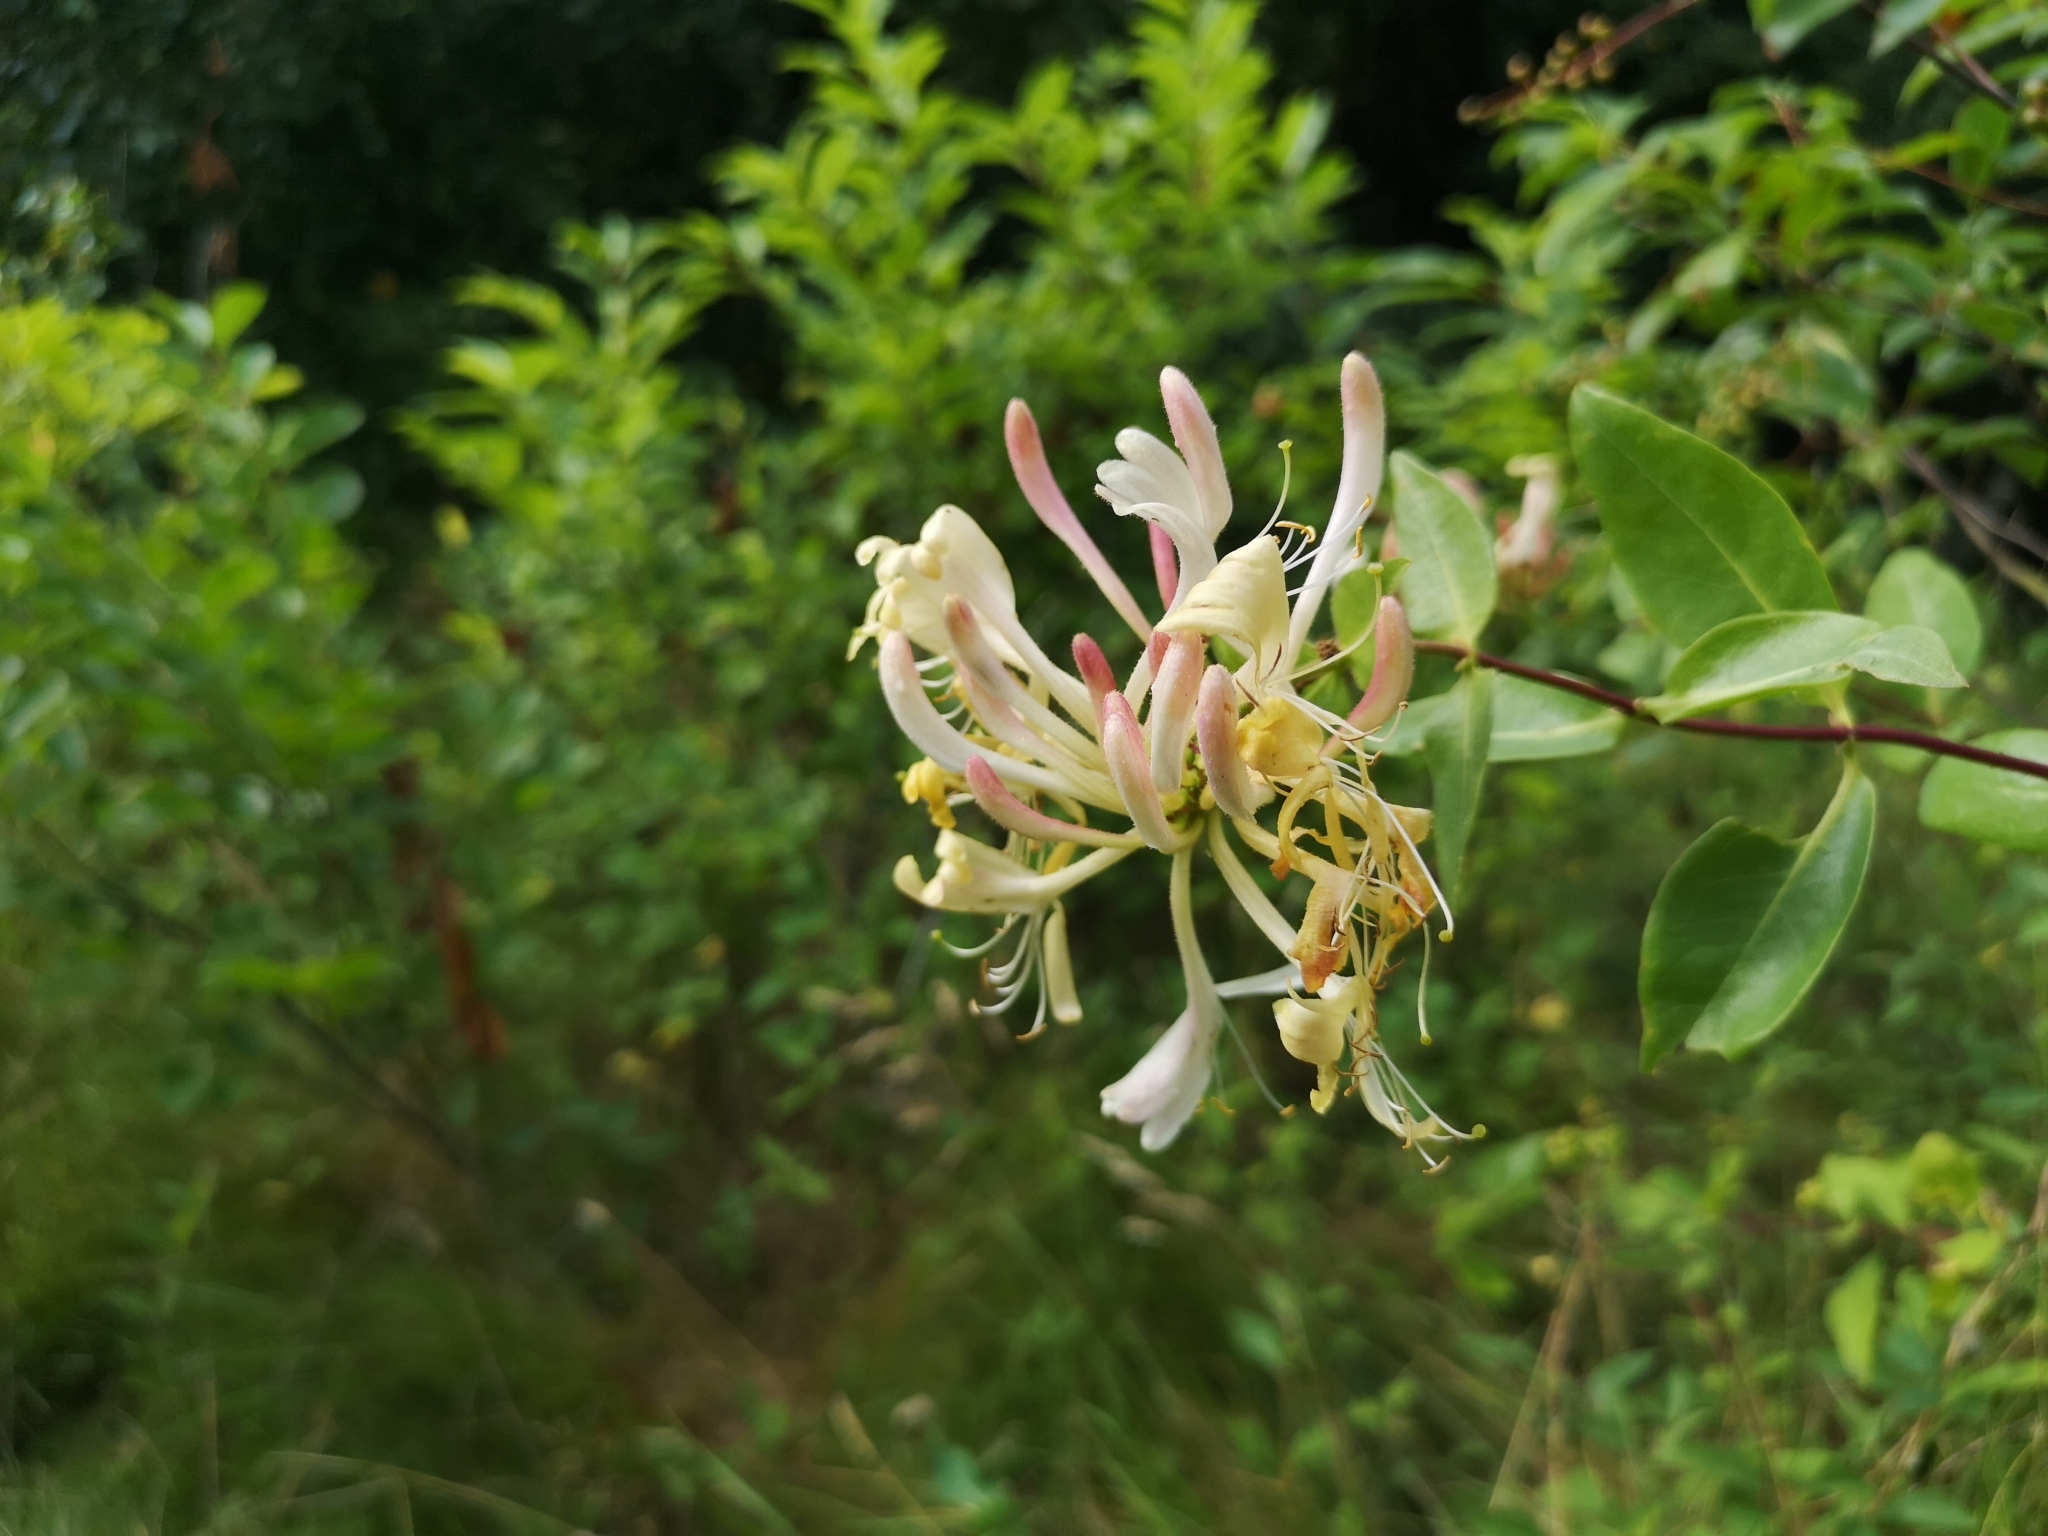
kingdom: Plantae
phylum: Tracheophyta
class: Magnoliopsida
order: Dipsacales
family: Caprifoliaceae
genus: Lonicera
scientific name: Lonicera periclymenum
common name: European honeysuckle
